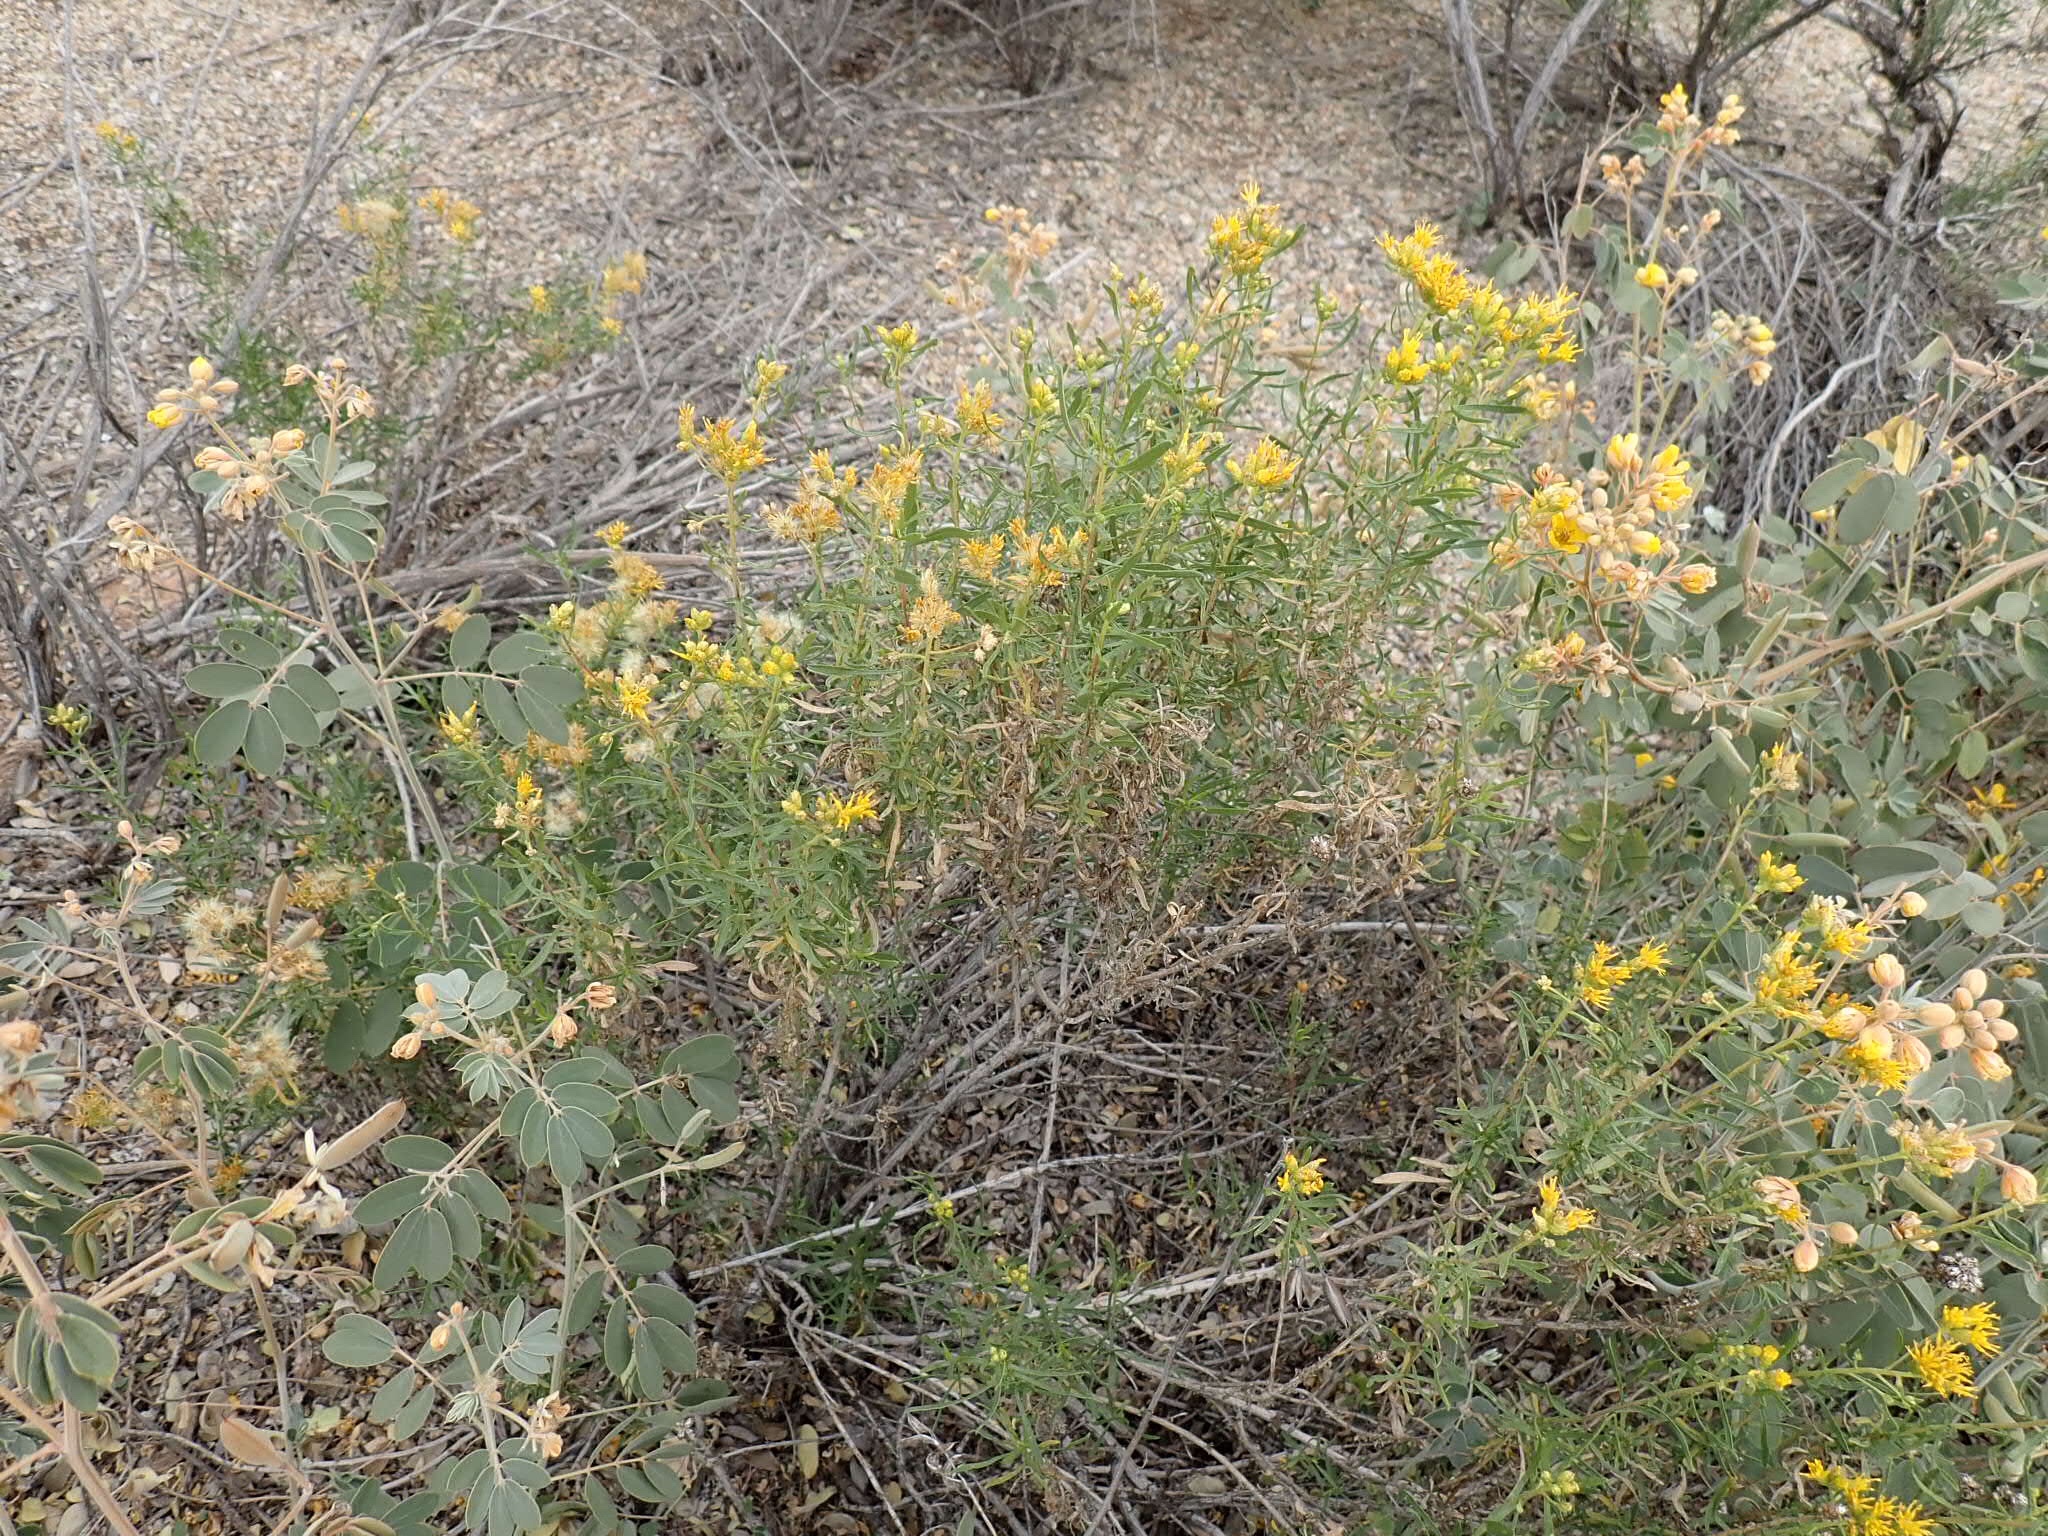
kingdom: Plantae
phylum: Tracheophyta
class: Magnoliopsida
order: Asterales
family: Asteraceae
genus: Isocoma
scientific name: Isocoma acradenia
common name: Alkali jimmyweed
